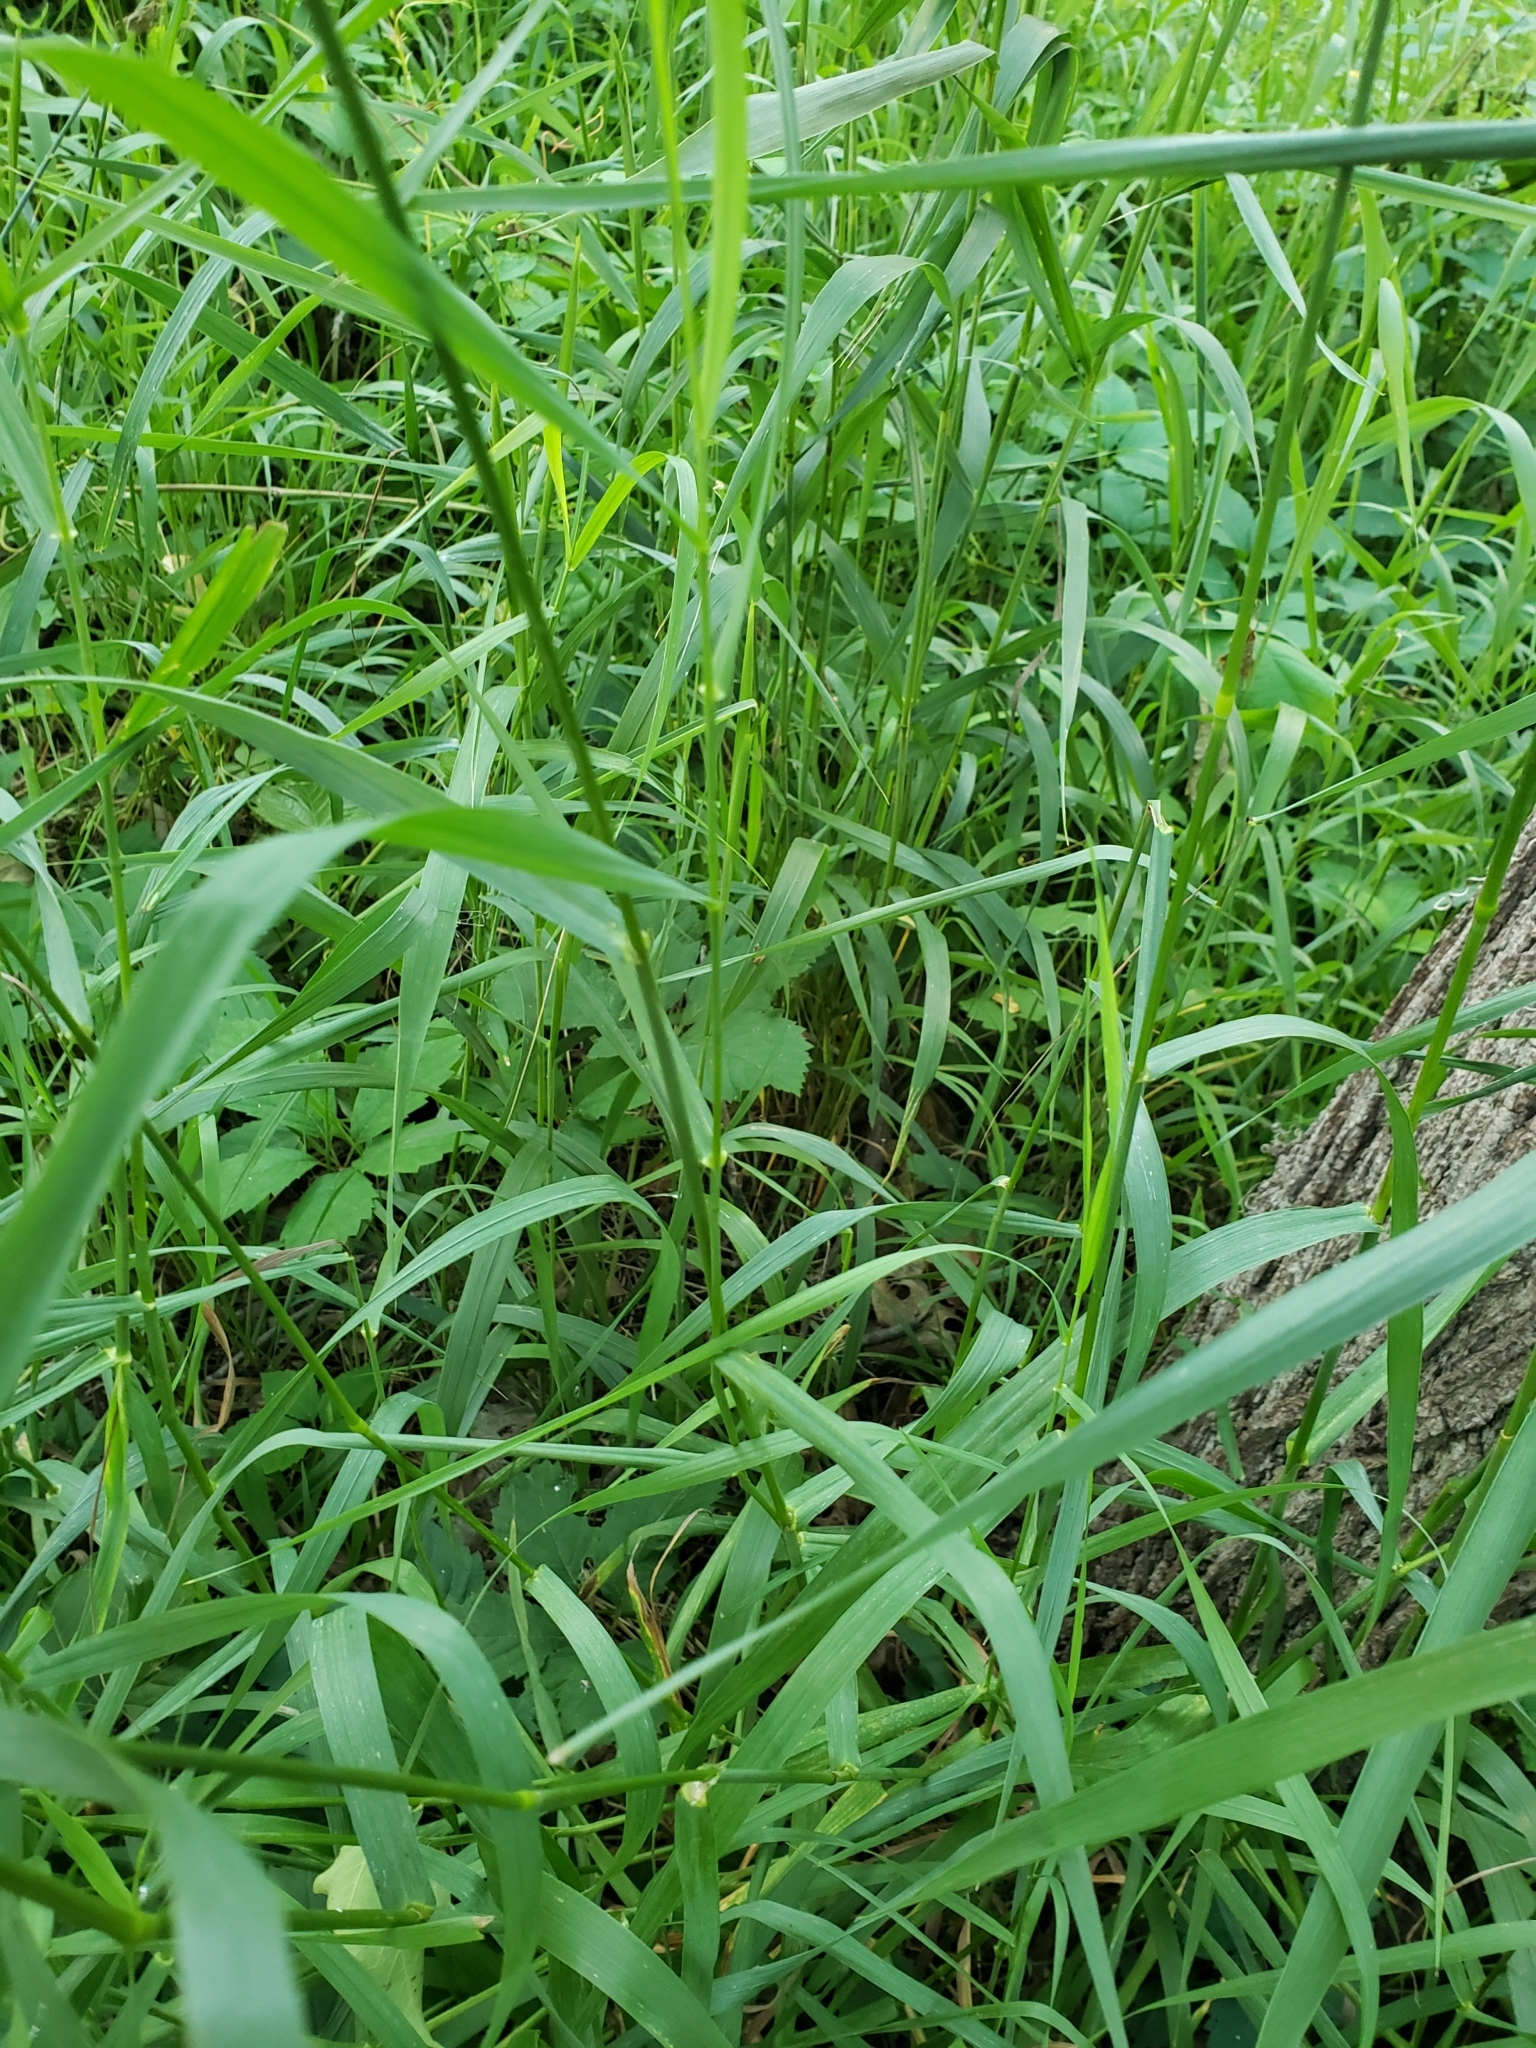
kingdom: Plantae
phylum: Tracheophyta
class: Liliopsida
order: Poales
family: Poaceae
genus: Bromus
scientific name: Bromus inermis
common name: Smooth brome
